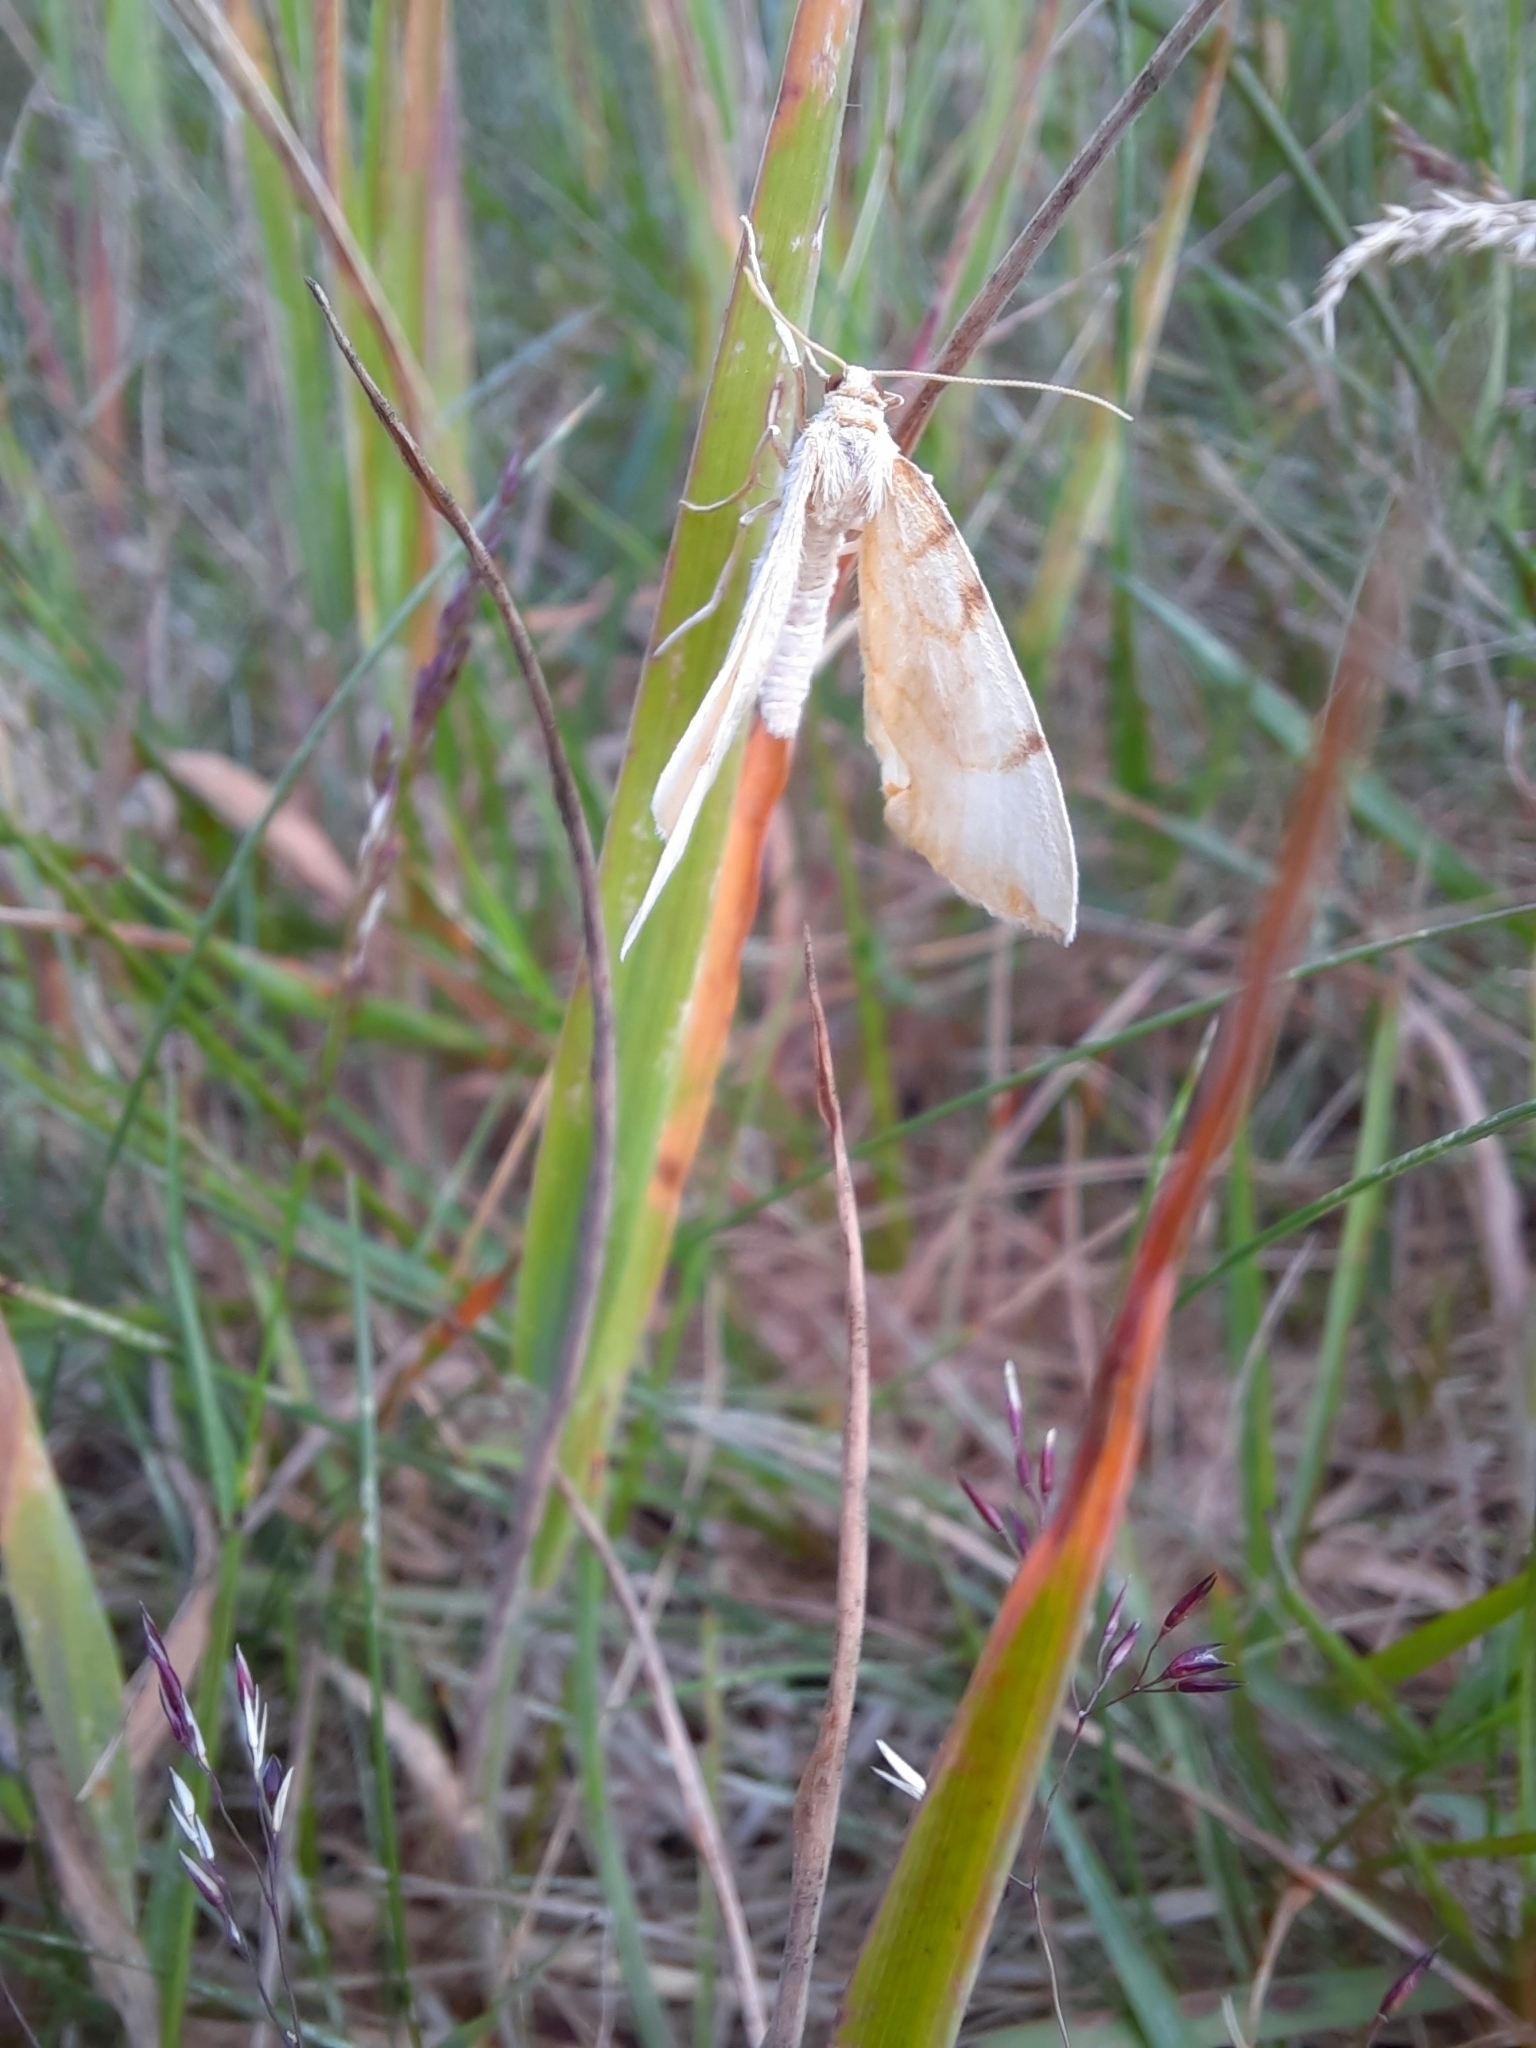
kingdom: Animalia
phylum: Arthropoda
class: Insecta
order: Lepidoptera
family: Geometridae
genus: Eulithis
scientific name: Eulithis pyraliata
